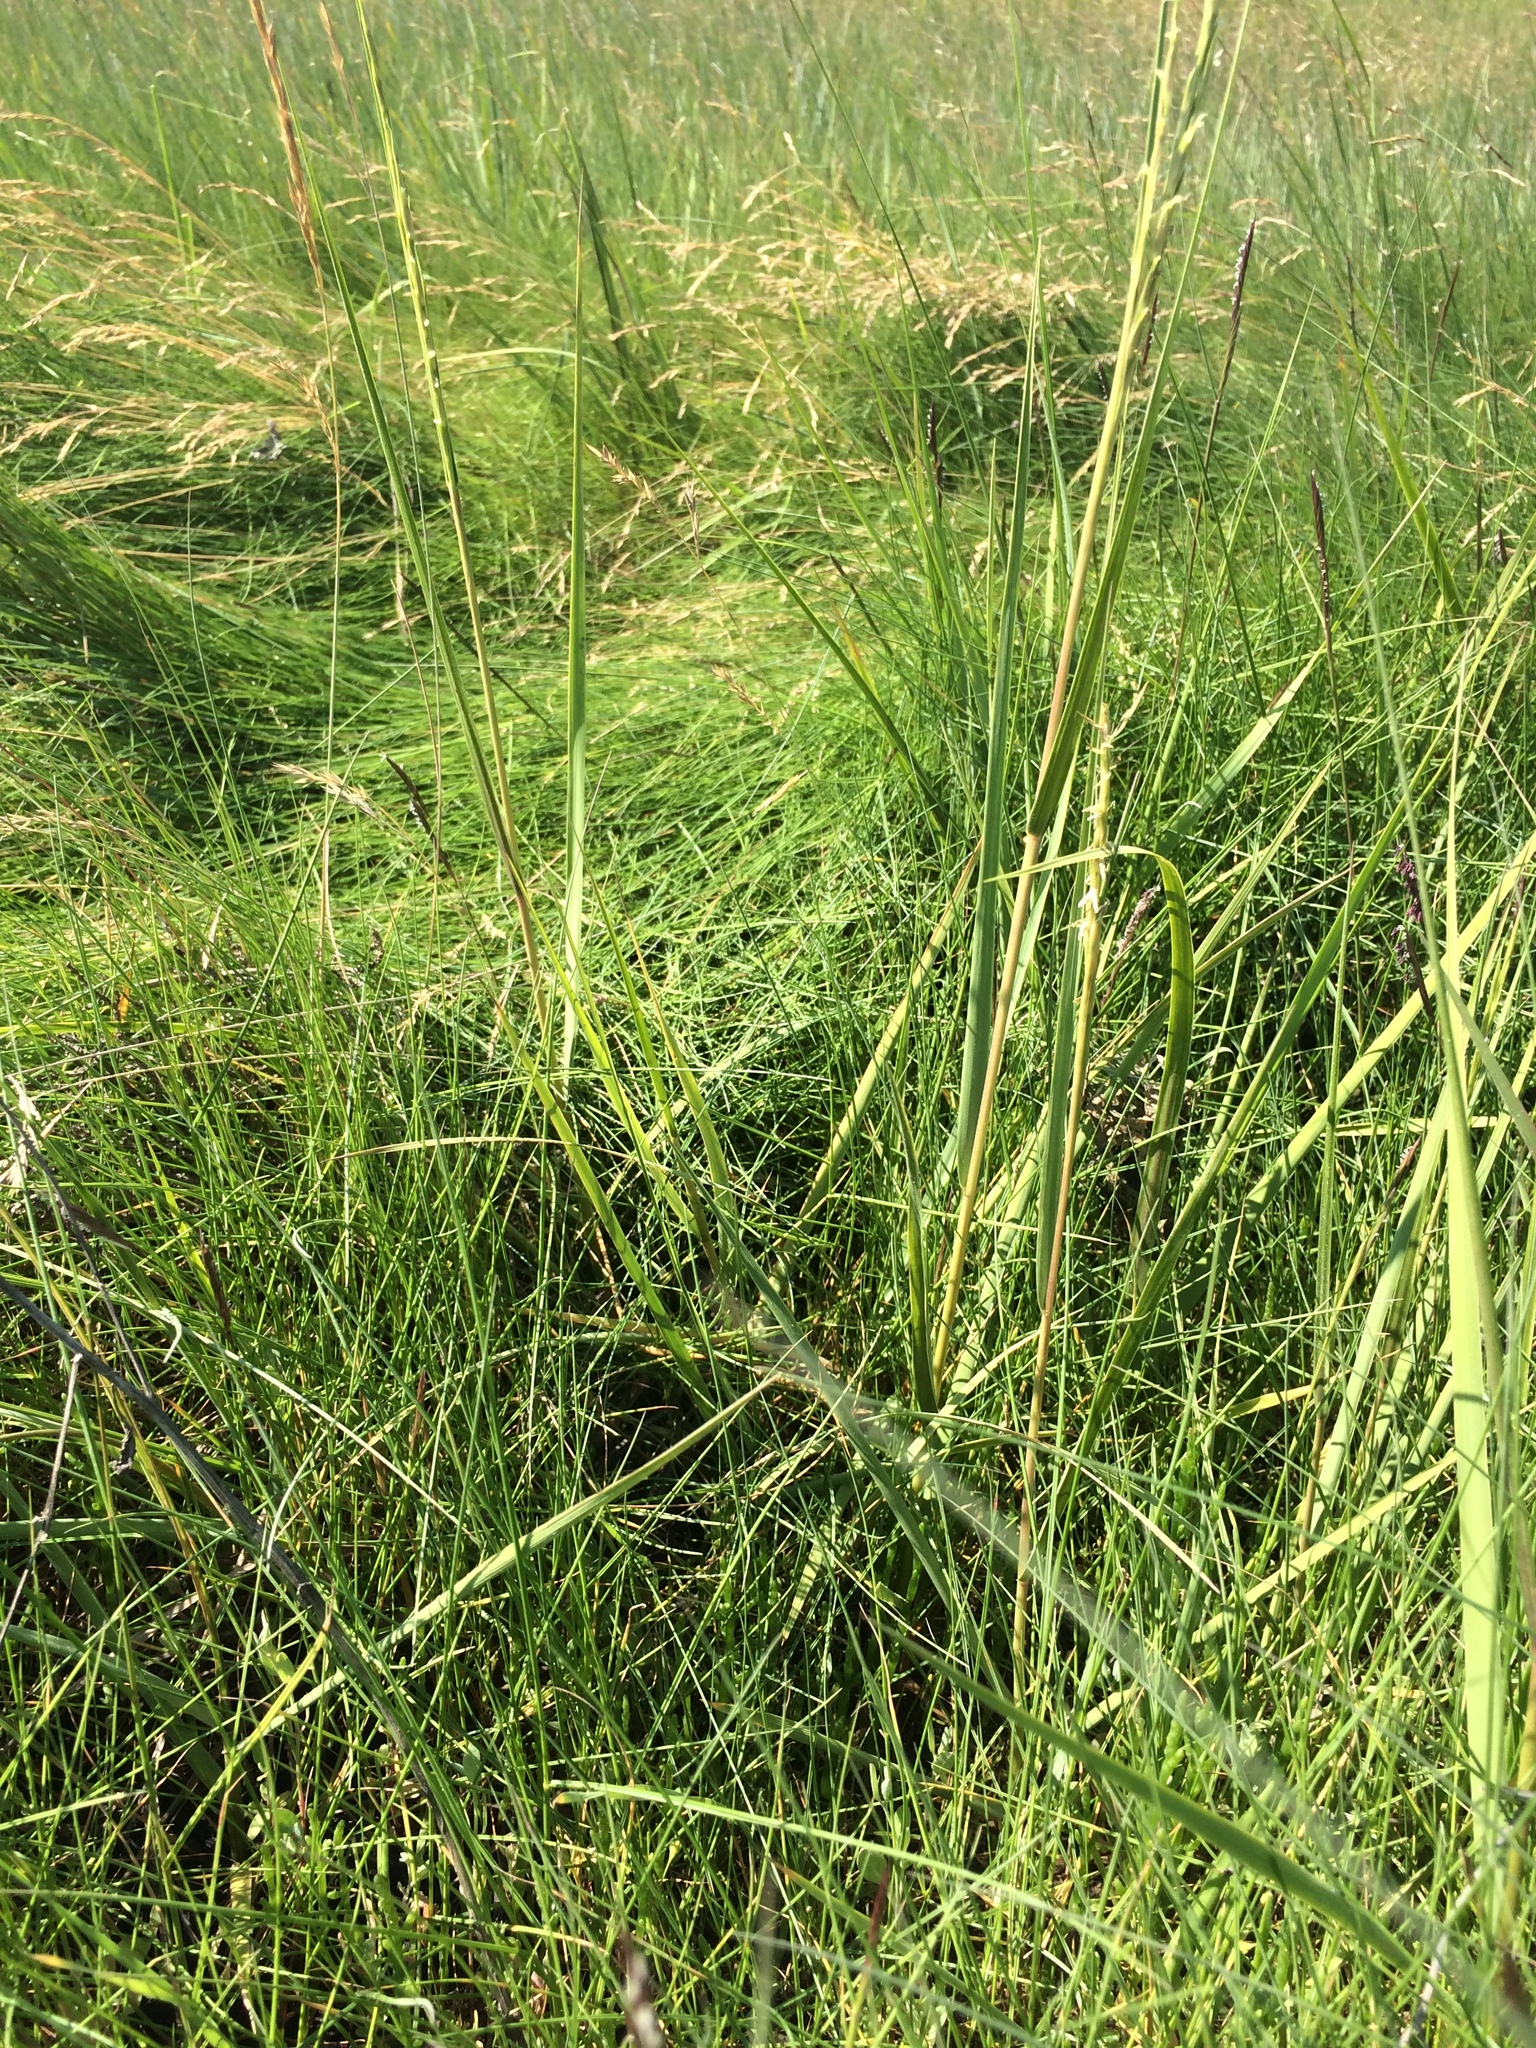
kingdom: Plantae
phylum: Tracheophyta
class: Liliopsida
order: Poales
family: Poaceae
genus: Sporobolus
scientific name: Sporobolus alterniflorus
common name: Atlantic cordgrass
